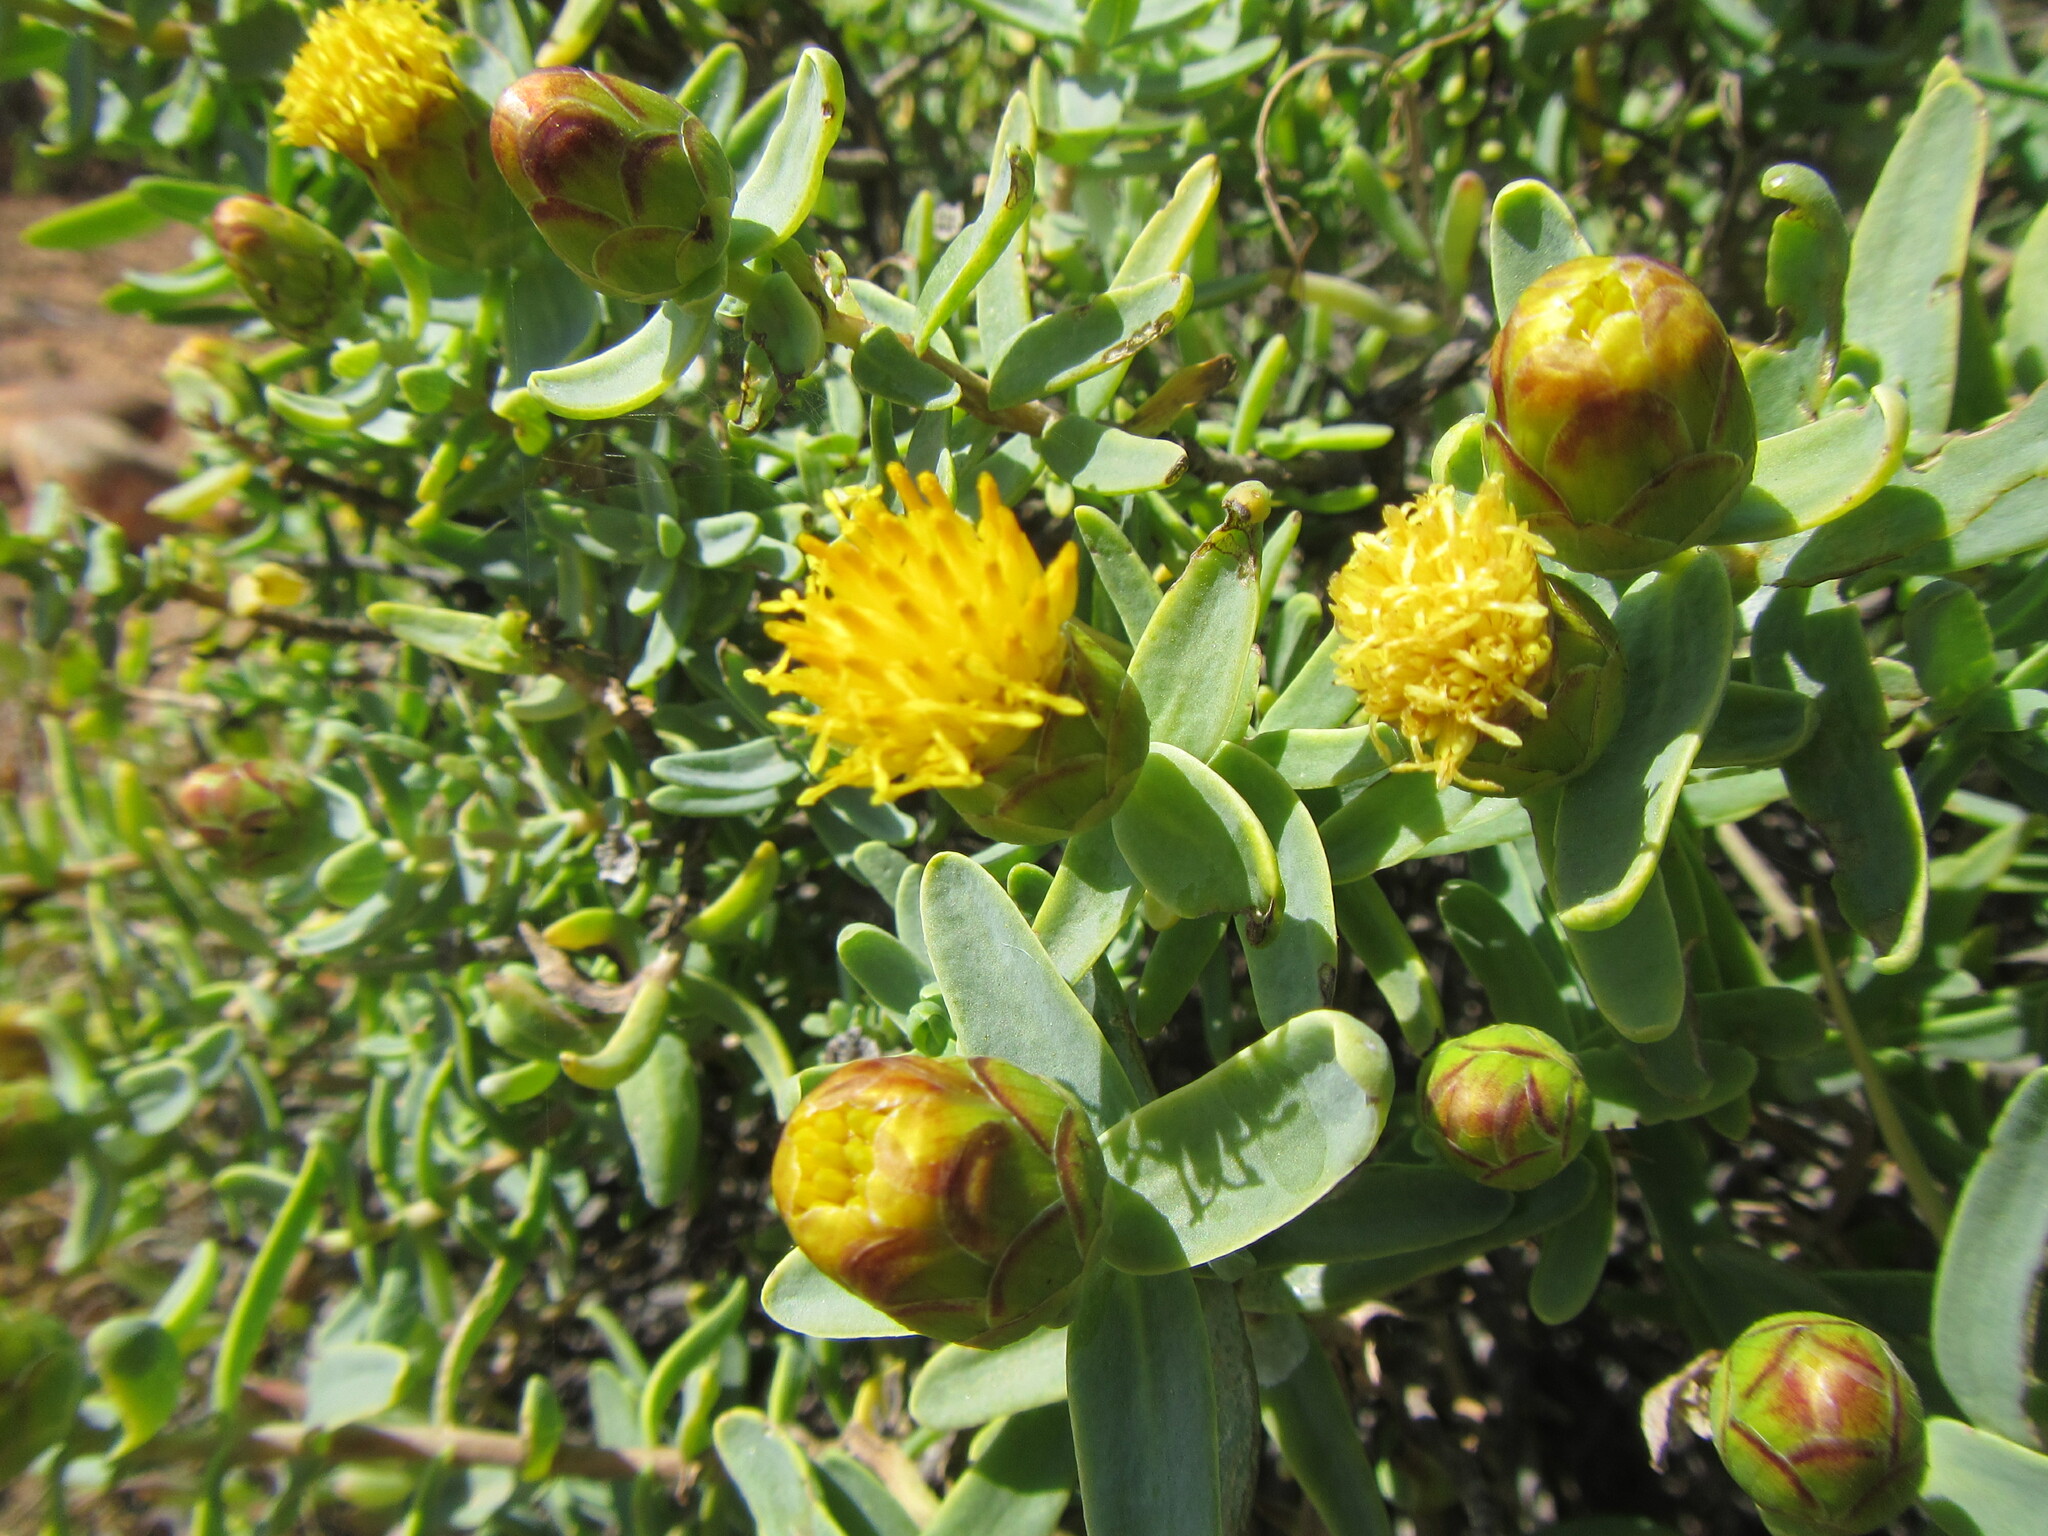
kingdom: Plantae
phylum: Tracheophyta
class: Magnoliopsida
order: Asterales
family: Asteraceae
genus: Pteronia
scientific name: Pteronia glabrata
